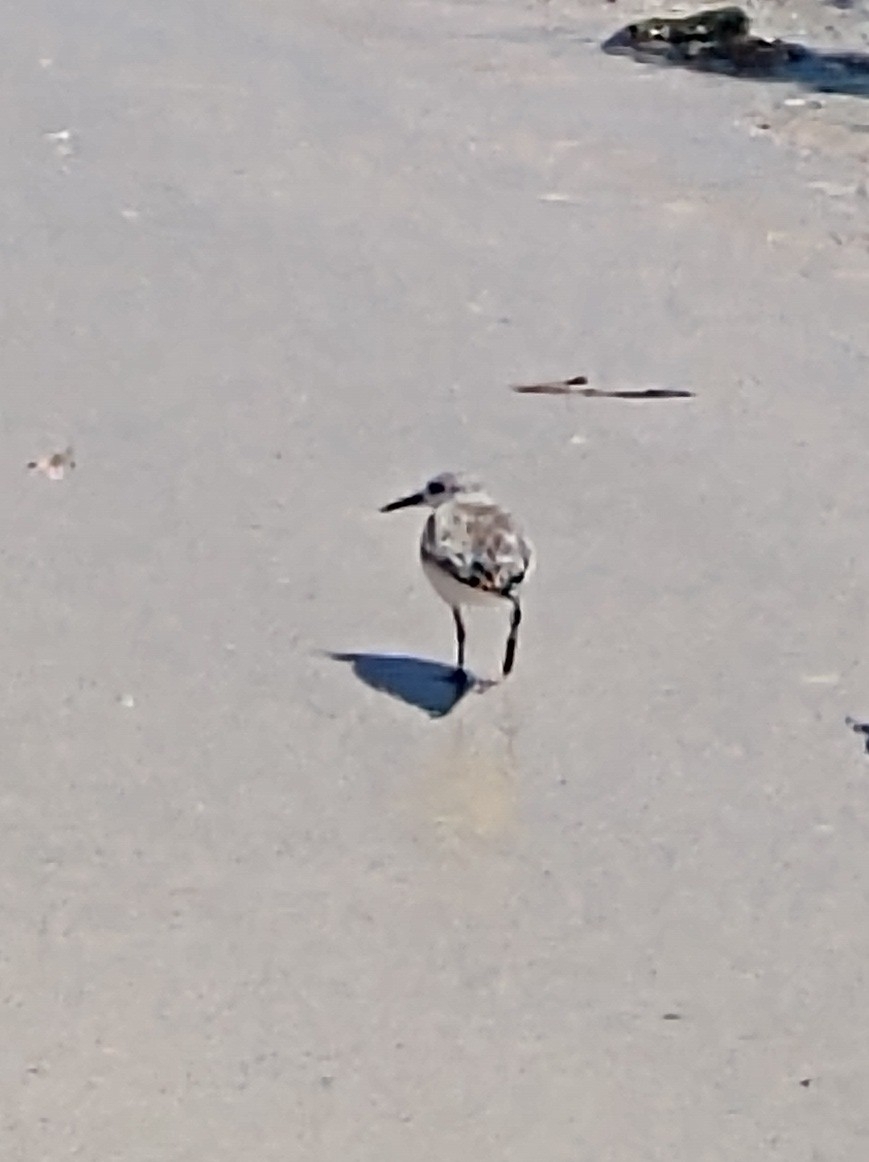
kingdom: Animalia
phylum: Chordata
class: Aves
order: Charadriiformes
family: Scolopacidae
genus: Calidris
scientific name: Calidris alba
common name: Sanderling
